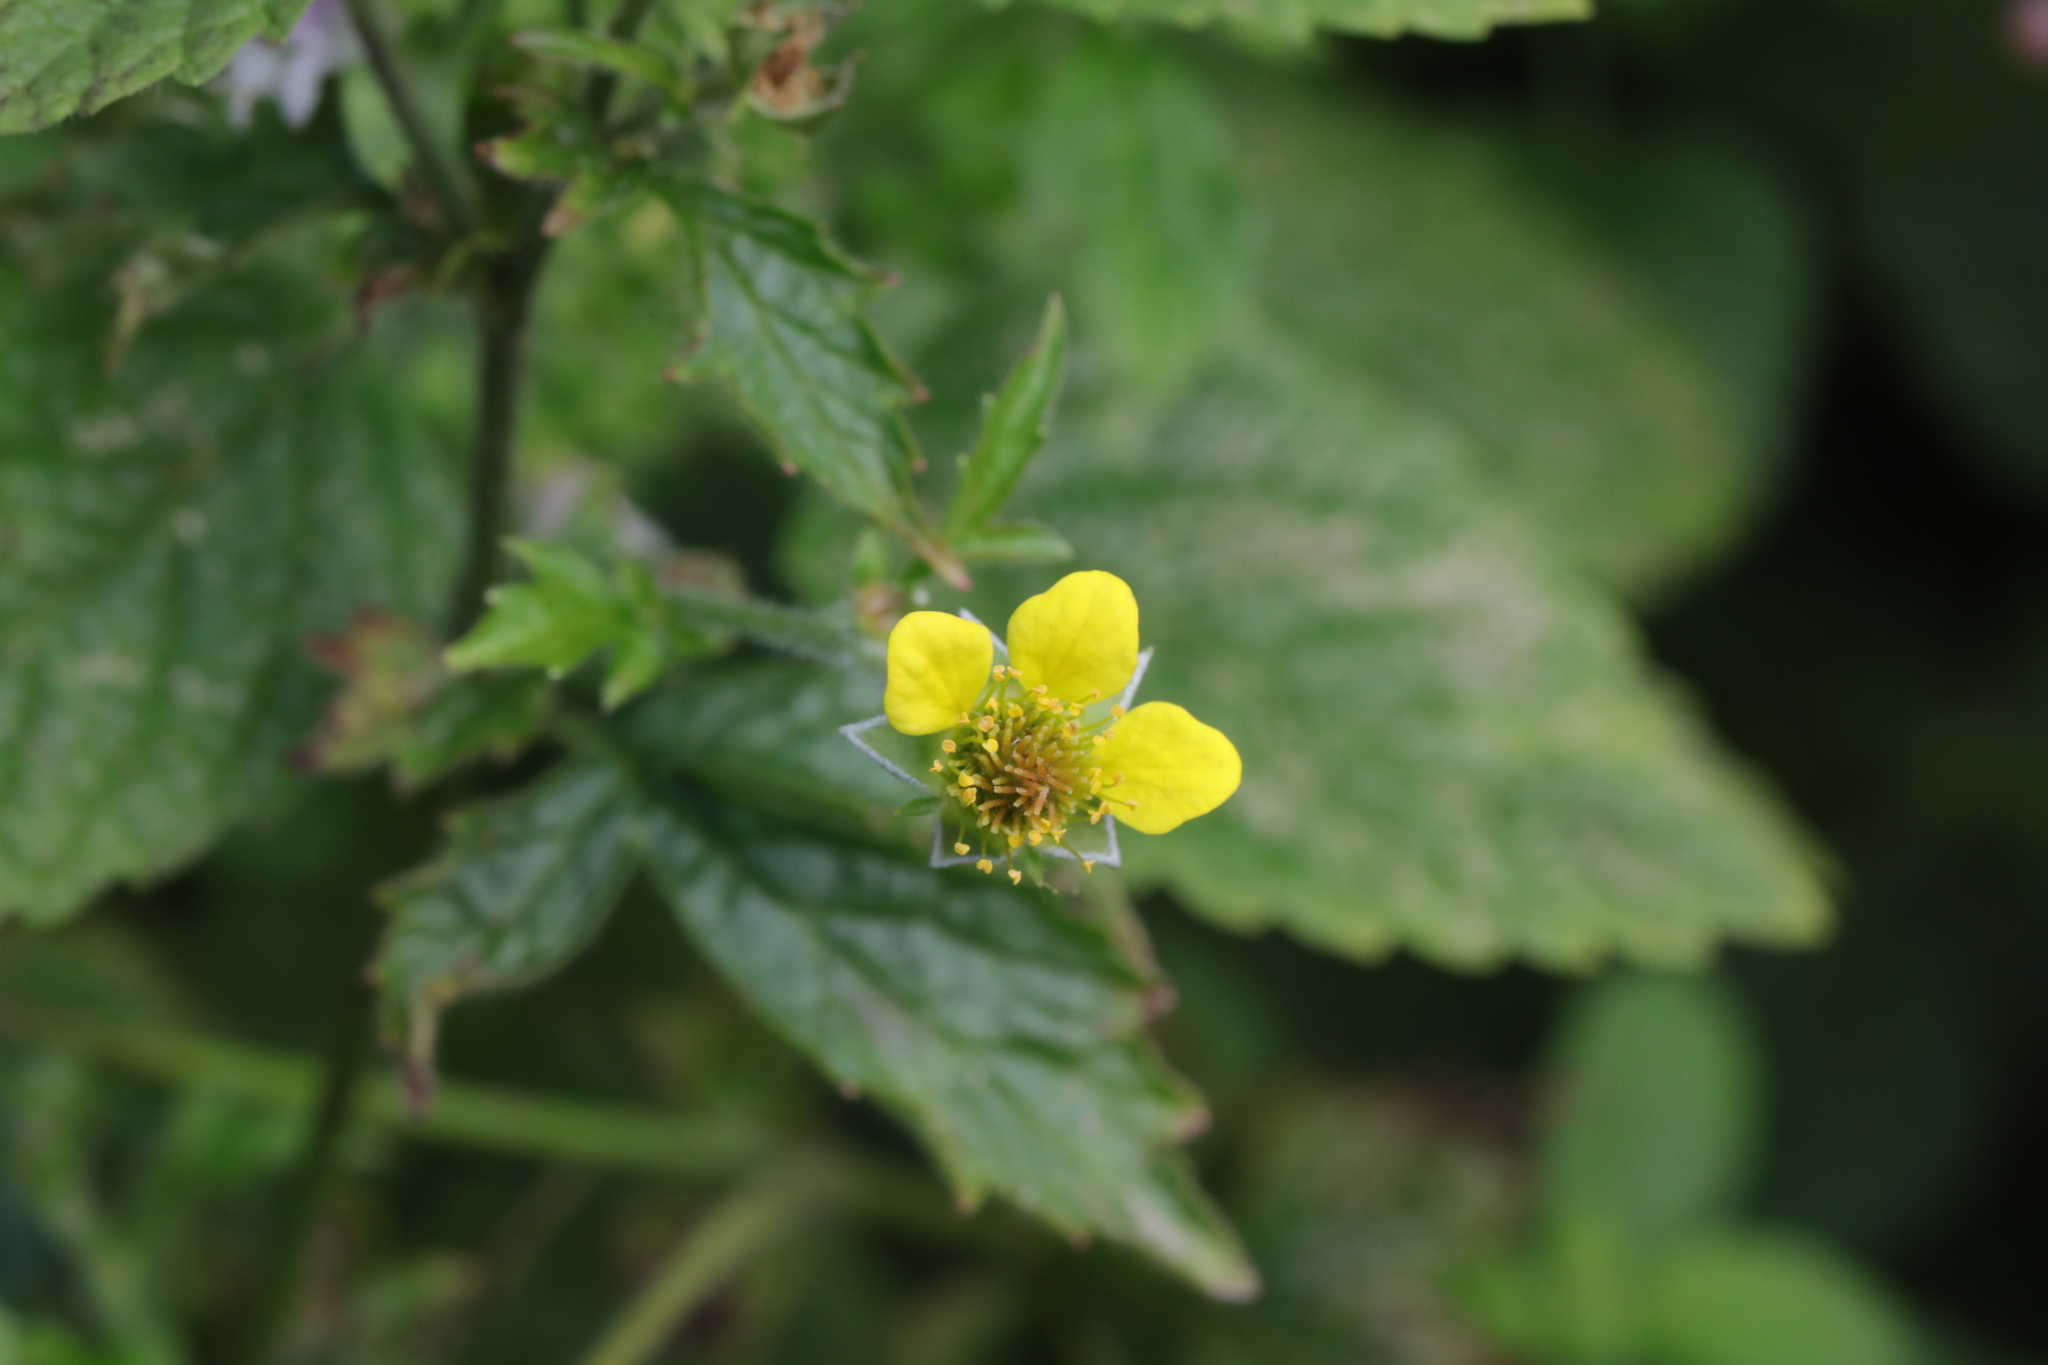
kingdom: Plantae
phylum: Tracheophyta
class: Magnoliopsida
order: Rosales
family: Rosaceae
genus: Geum
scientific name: Geum urbanum
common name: Wood avens
